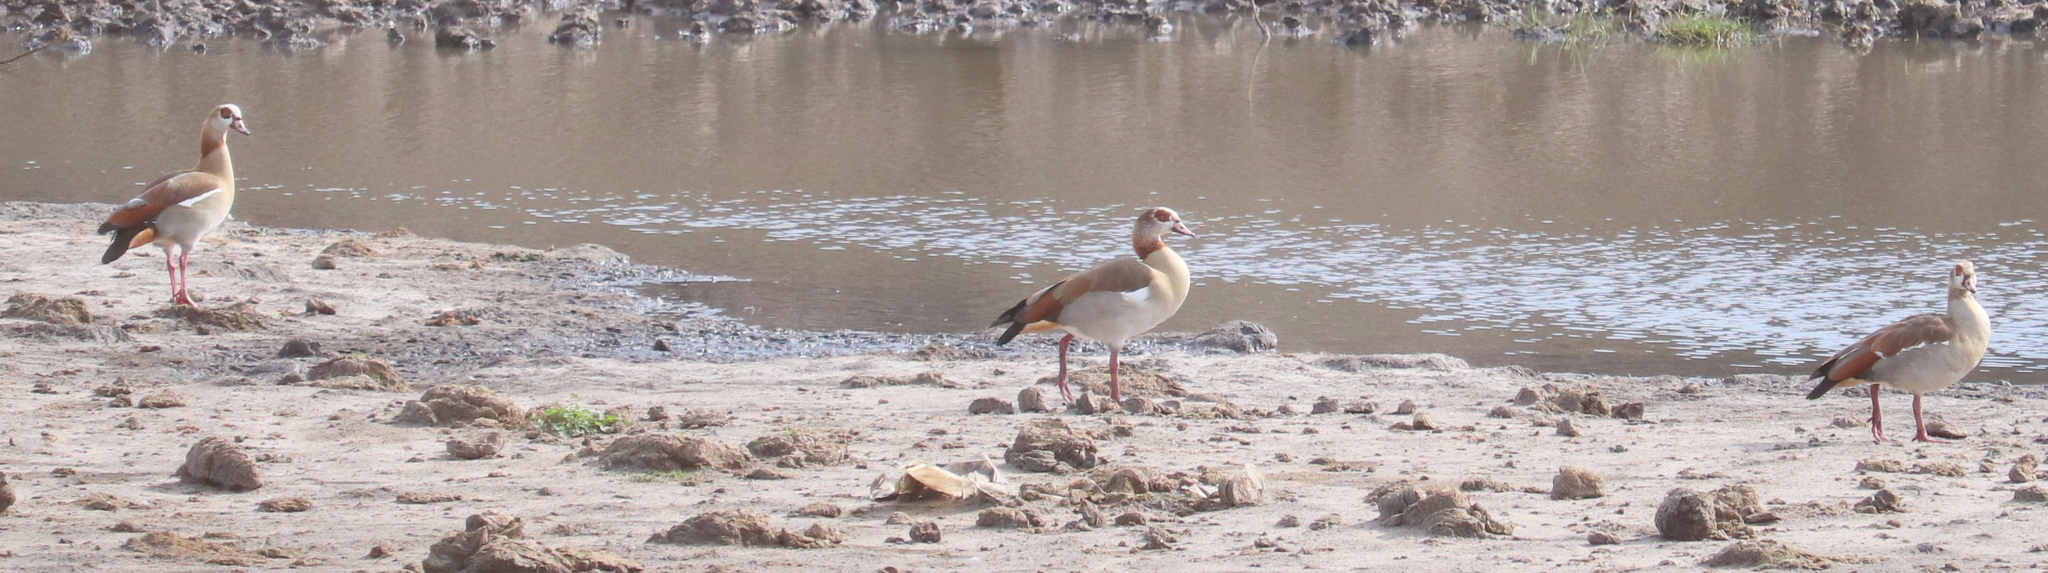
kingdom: Animalia
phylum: Chordata
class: Aves
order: Anseriformes
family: Anatidae
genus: Alopochen
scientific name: Alopochen aegyptiaca
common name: Egyptian goose
